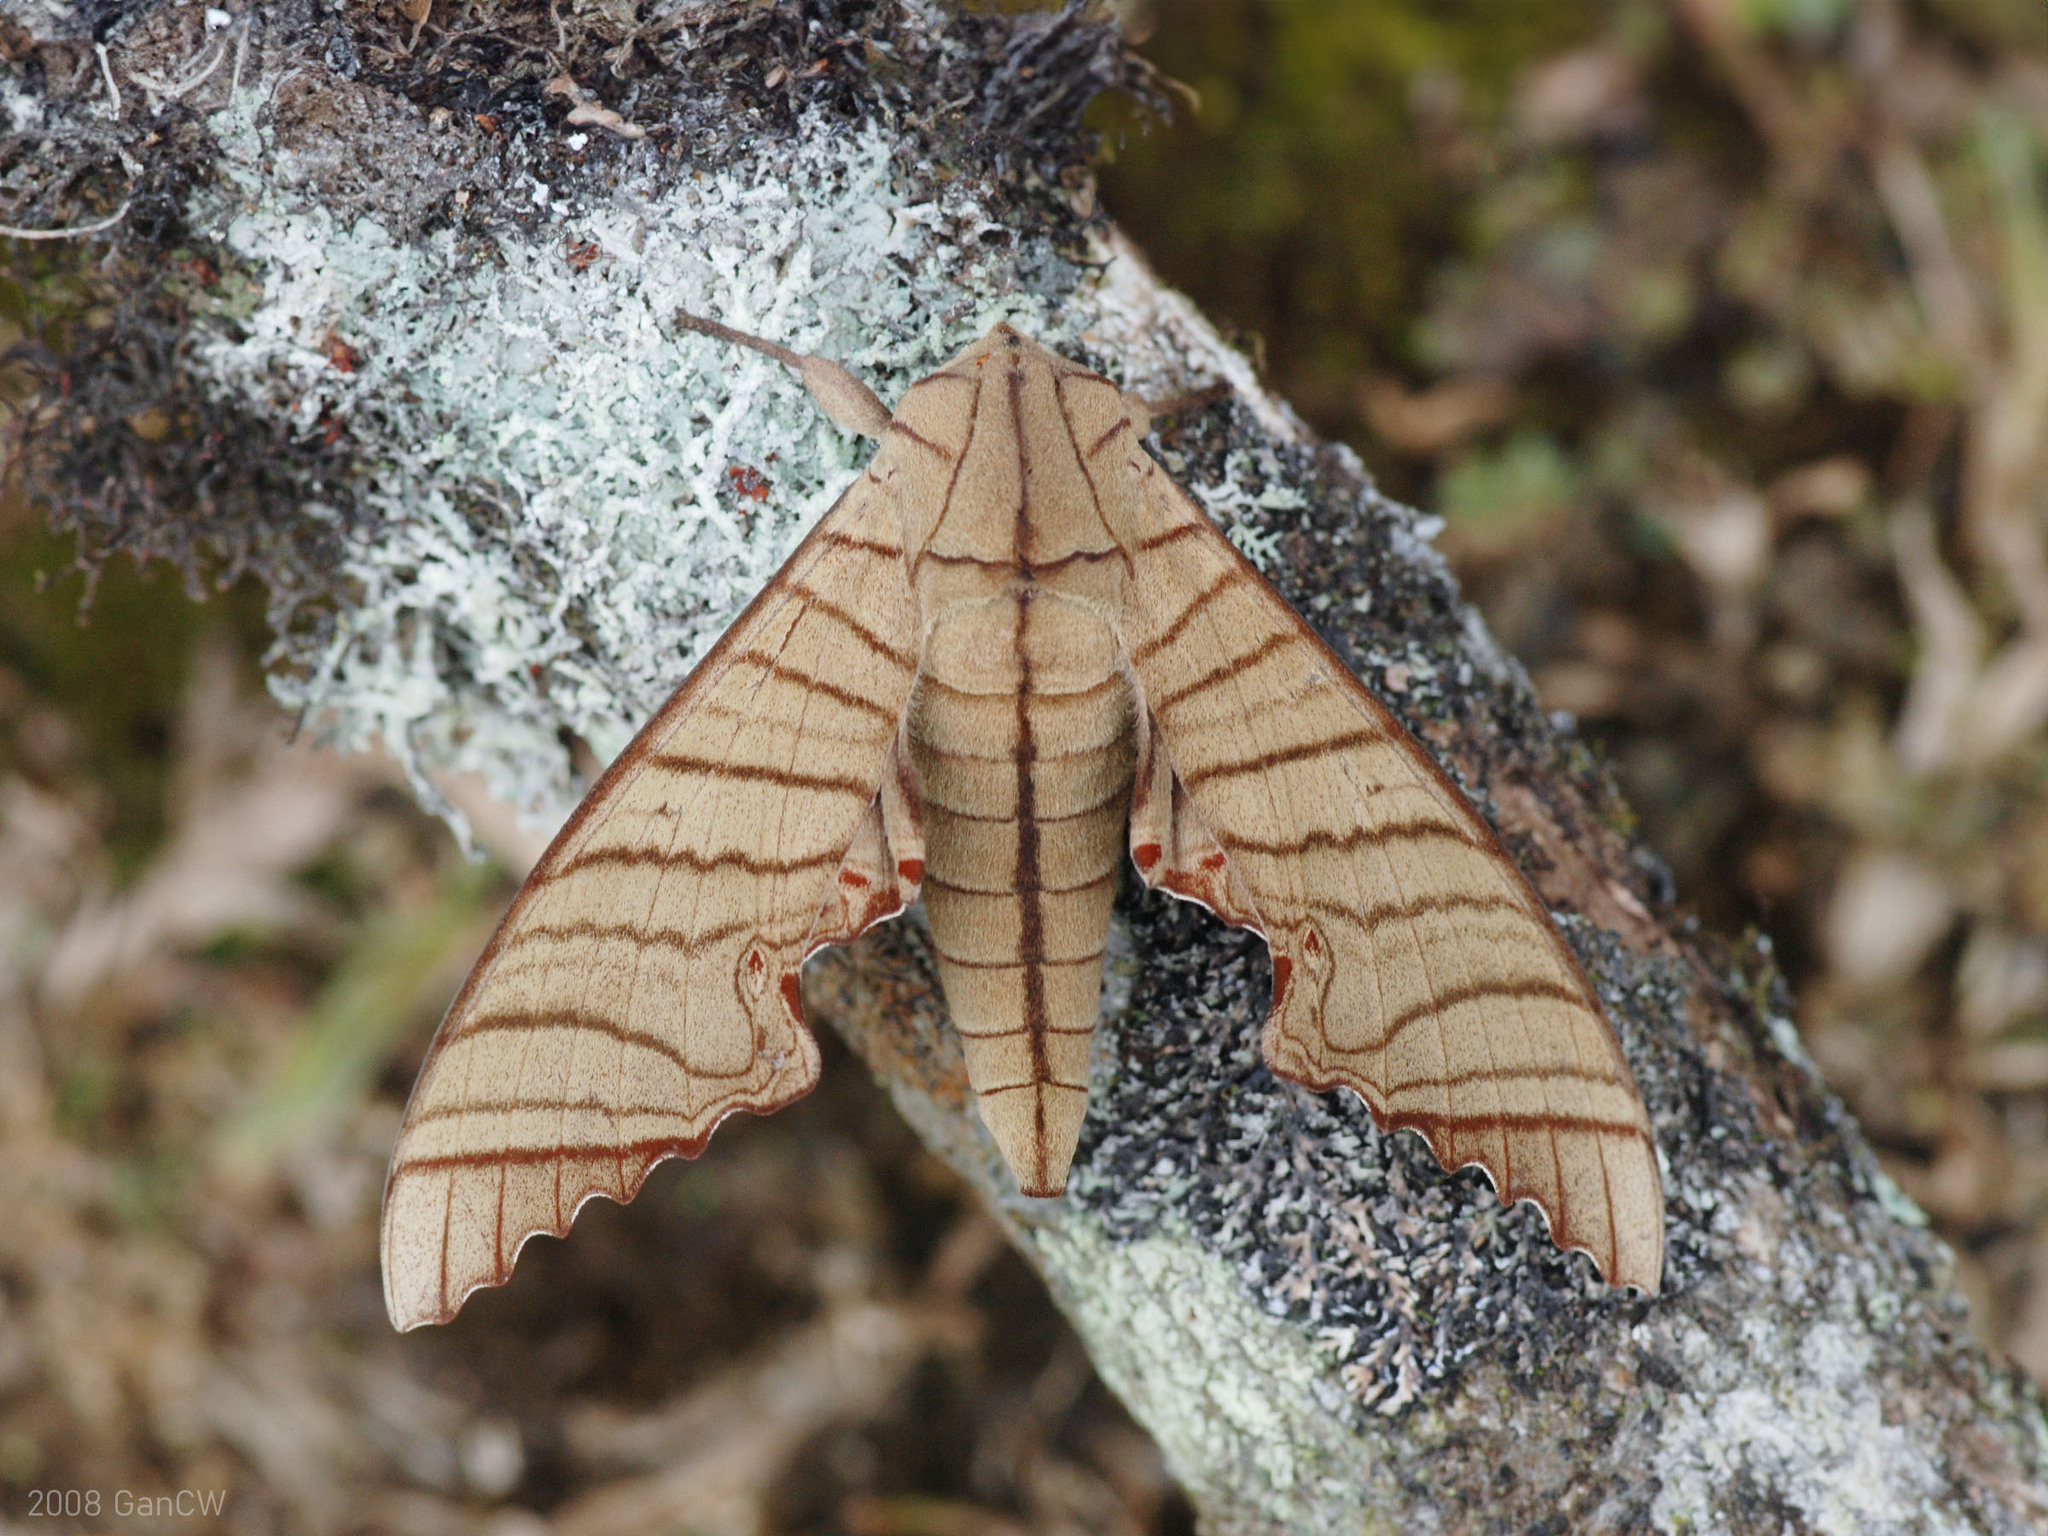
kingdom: Animalia
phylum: Arthropoda
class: Insecta
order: Lepidoptera
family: Sphingidae
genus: Marumba
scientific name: Marumba tigrina
